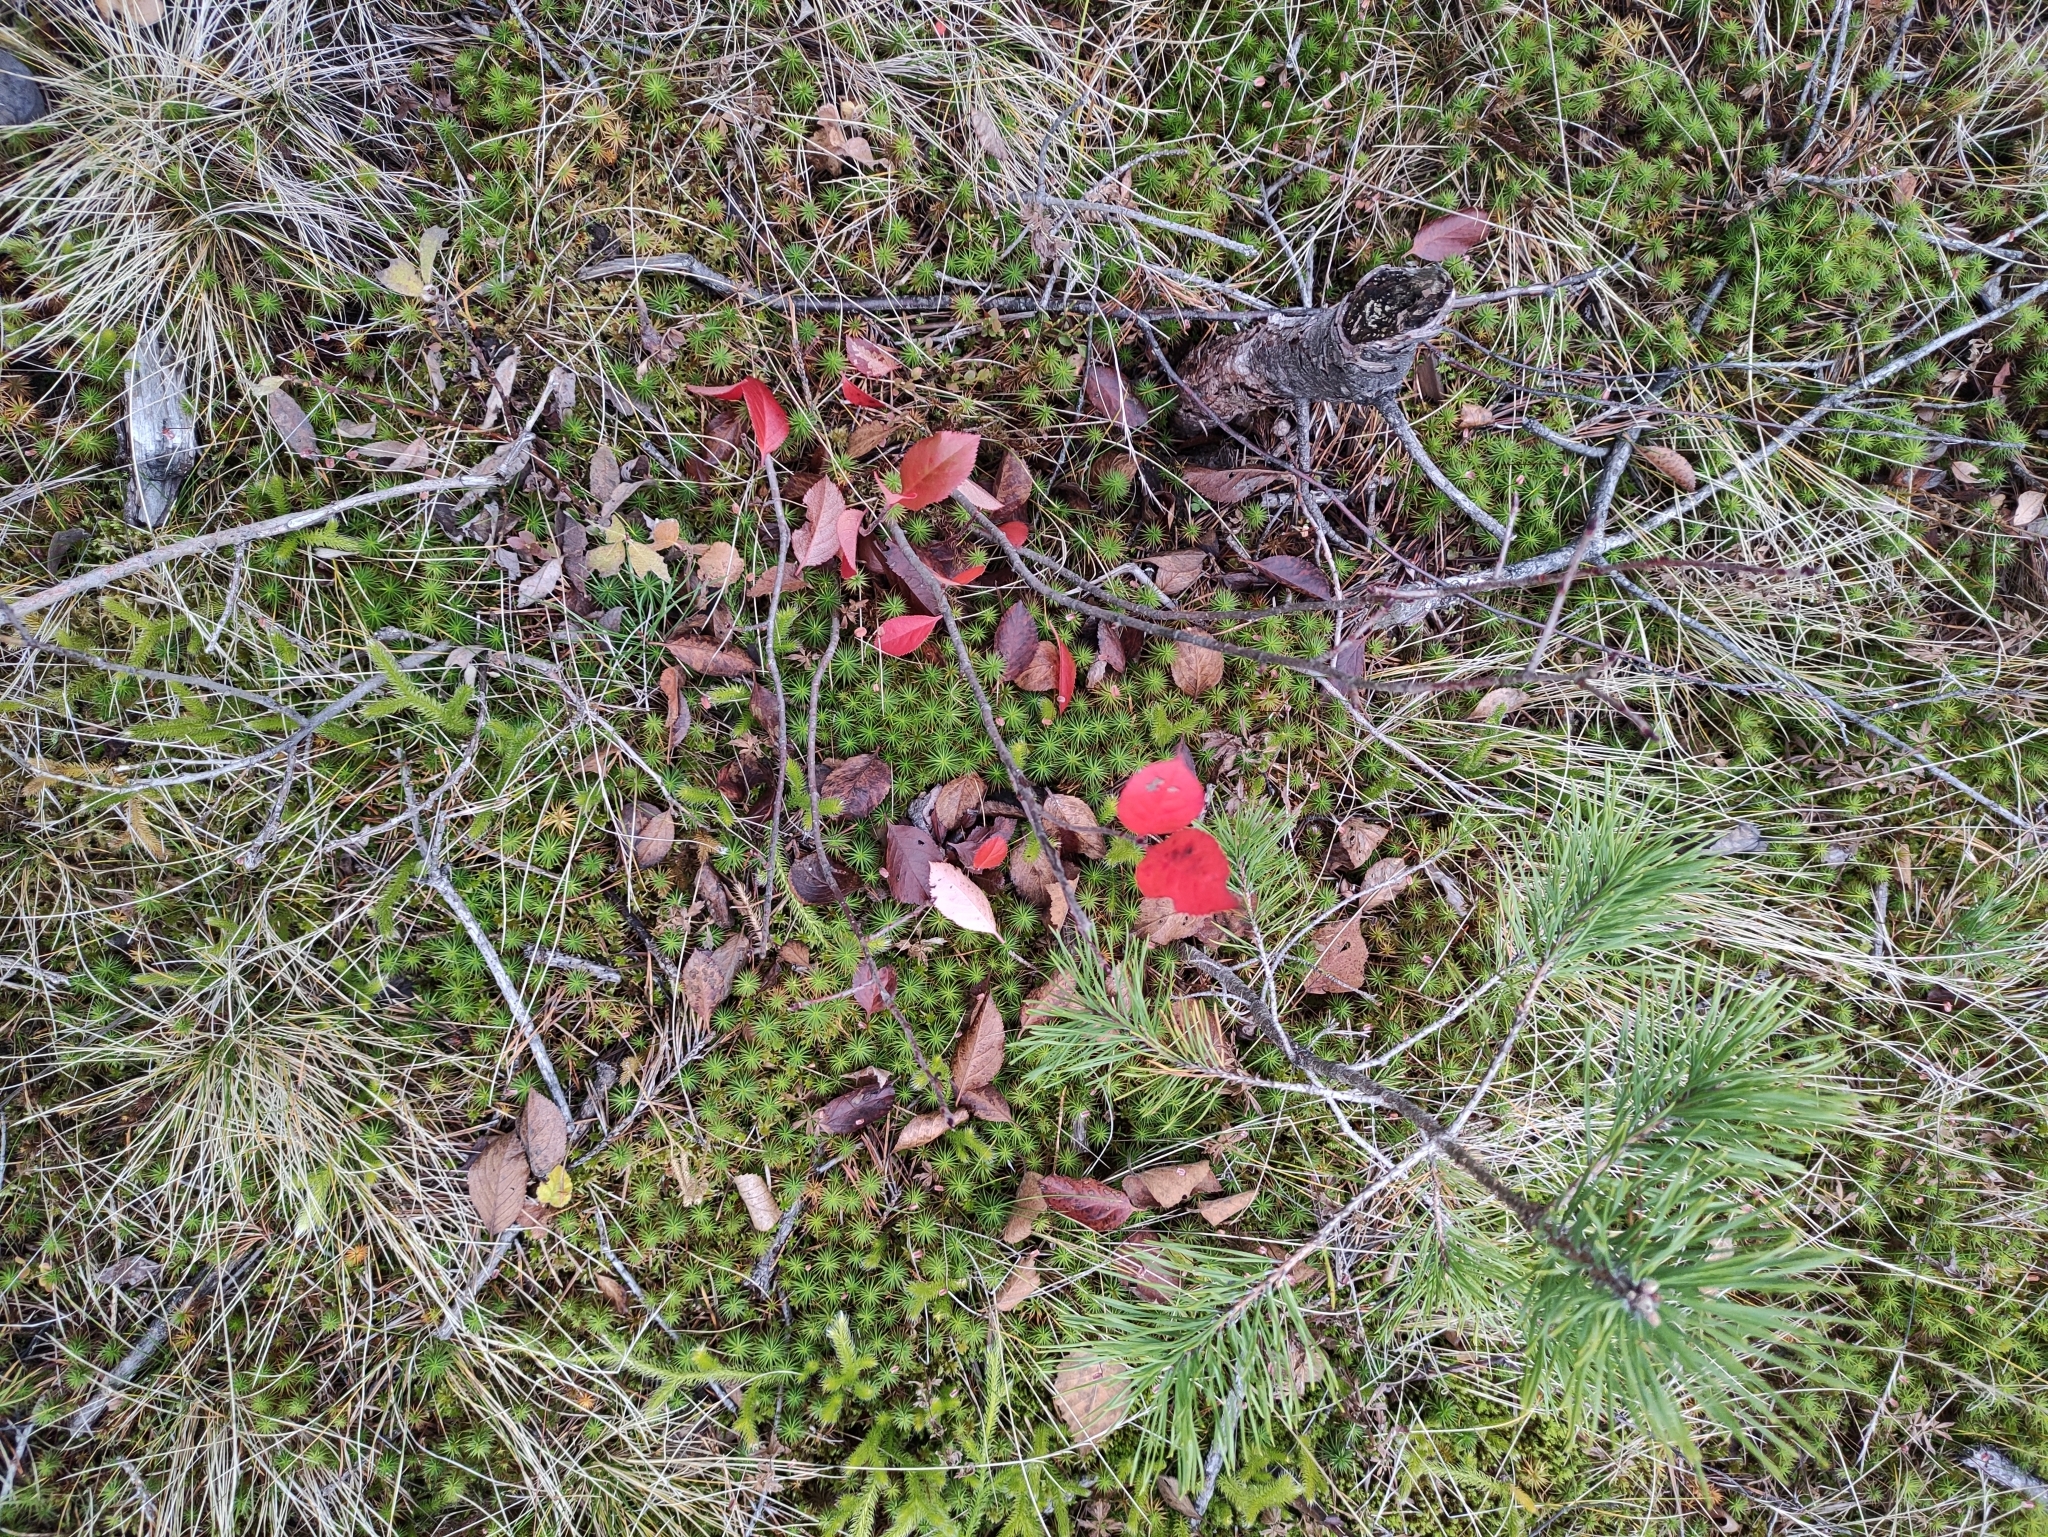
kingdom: Plantae
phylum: Tracheophyta
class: Magnoliopsida
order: Rosales
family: Rosaceae
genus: Sorbaronia
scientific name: Sorbaronia arsenii
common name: Arsène's mountain-ash
